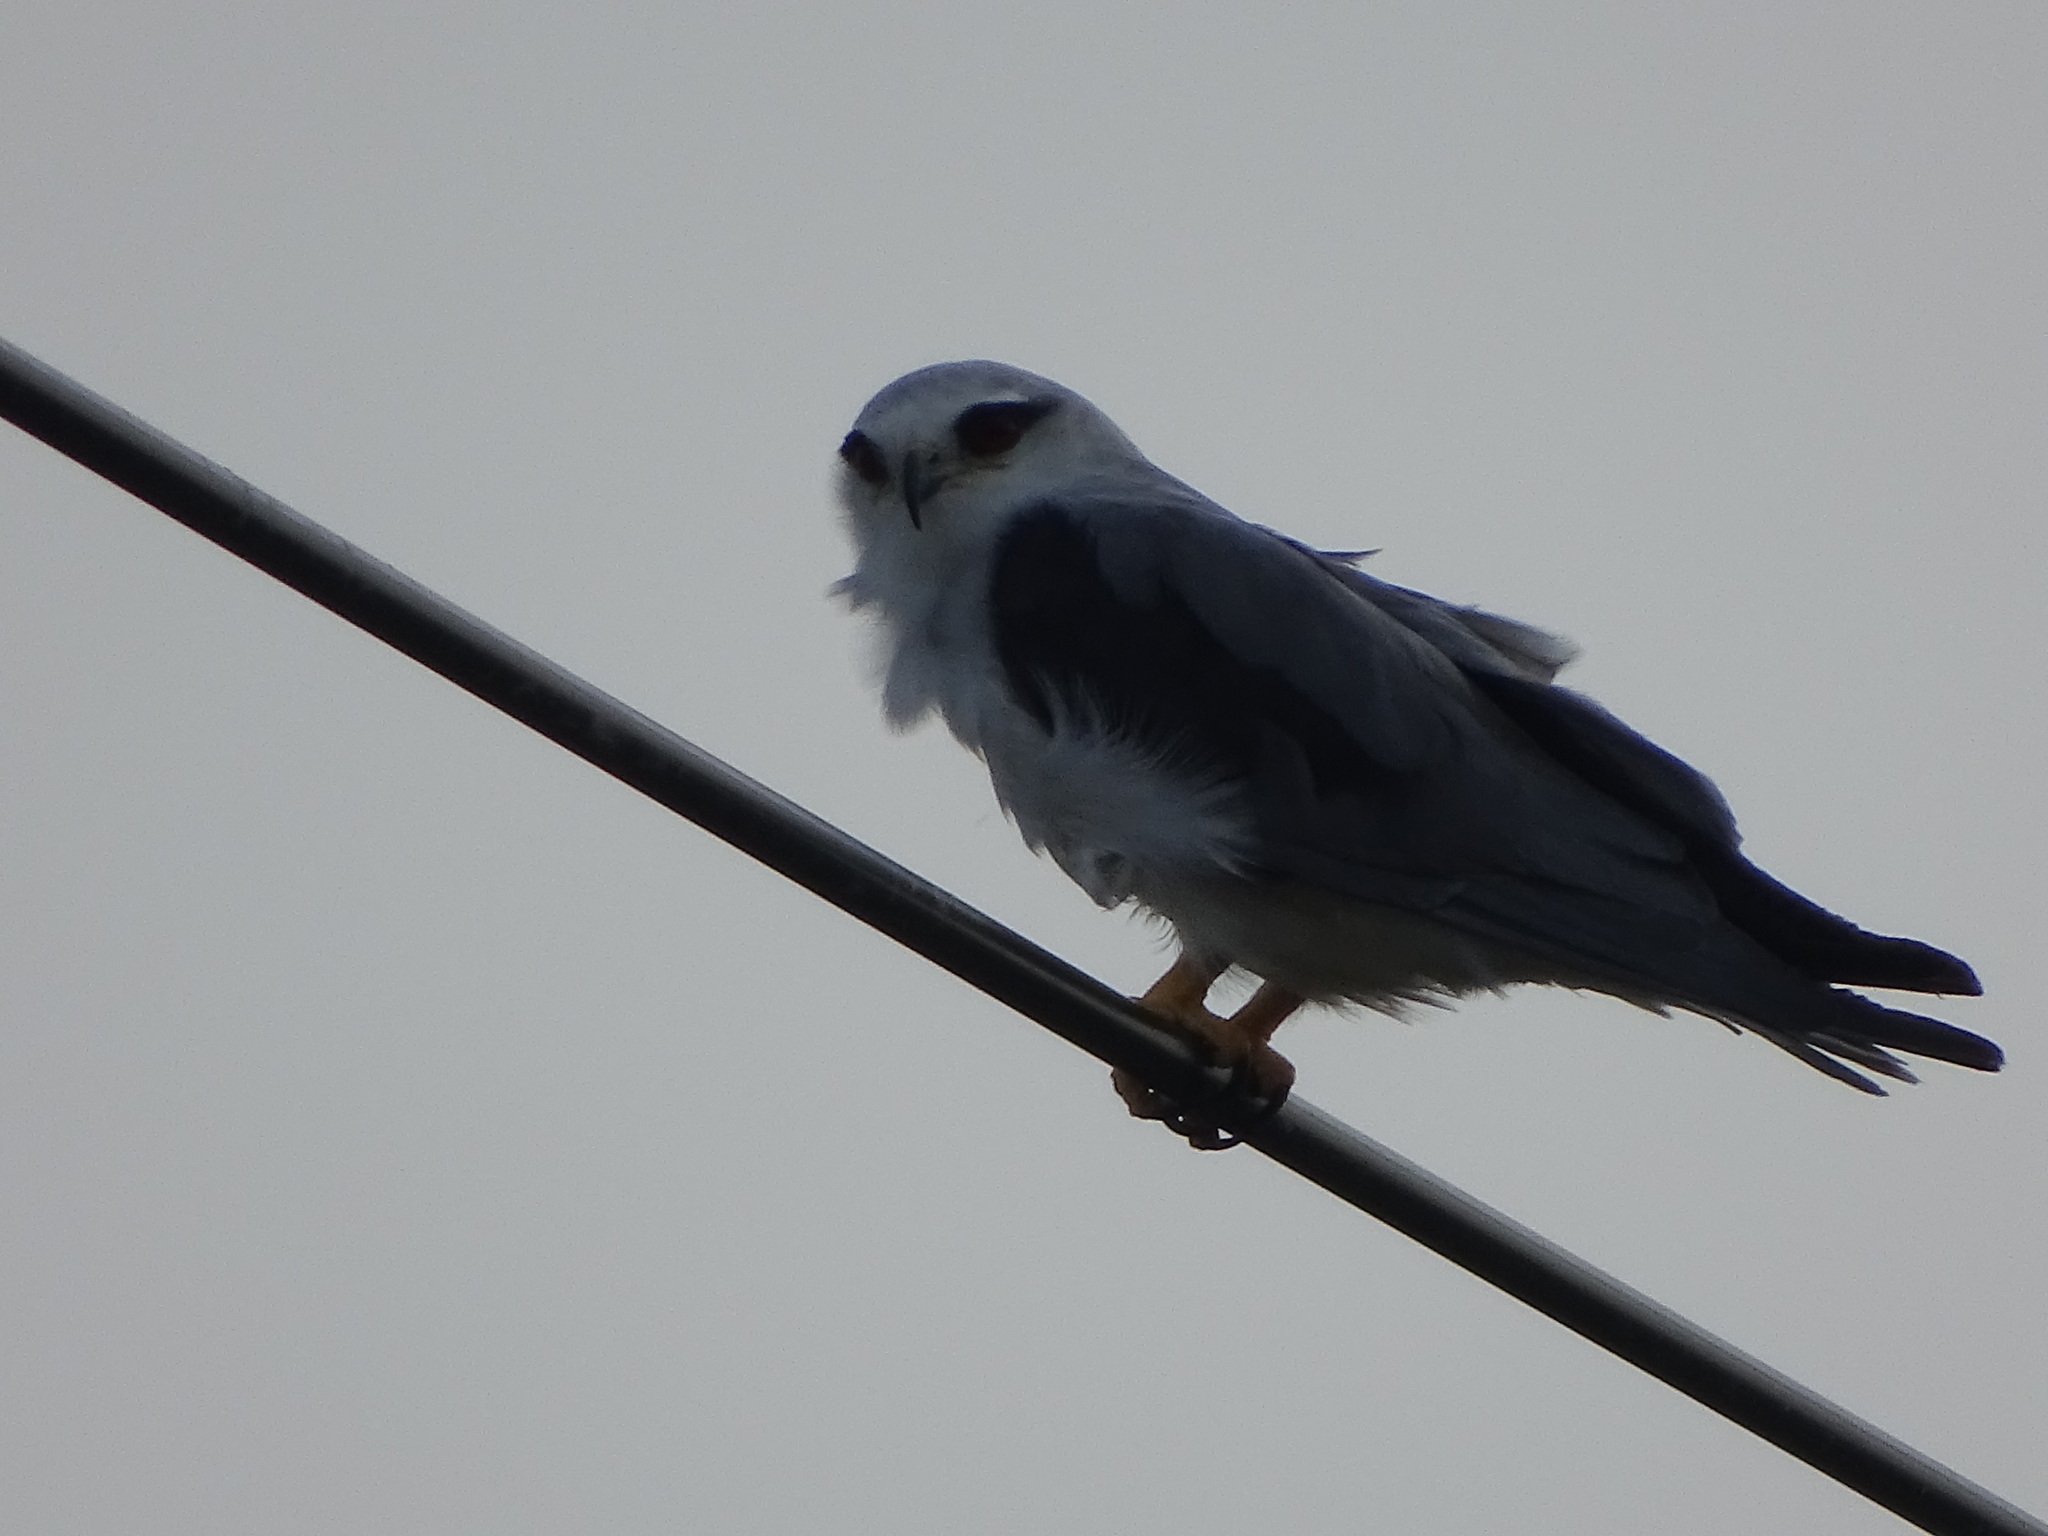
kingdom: Animalia
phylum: Chordata
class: Aves
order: Accipitriformes
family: Accipitridae
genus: Elanus
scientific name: Elanus caeruleus
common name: Black-winged kite
